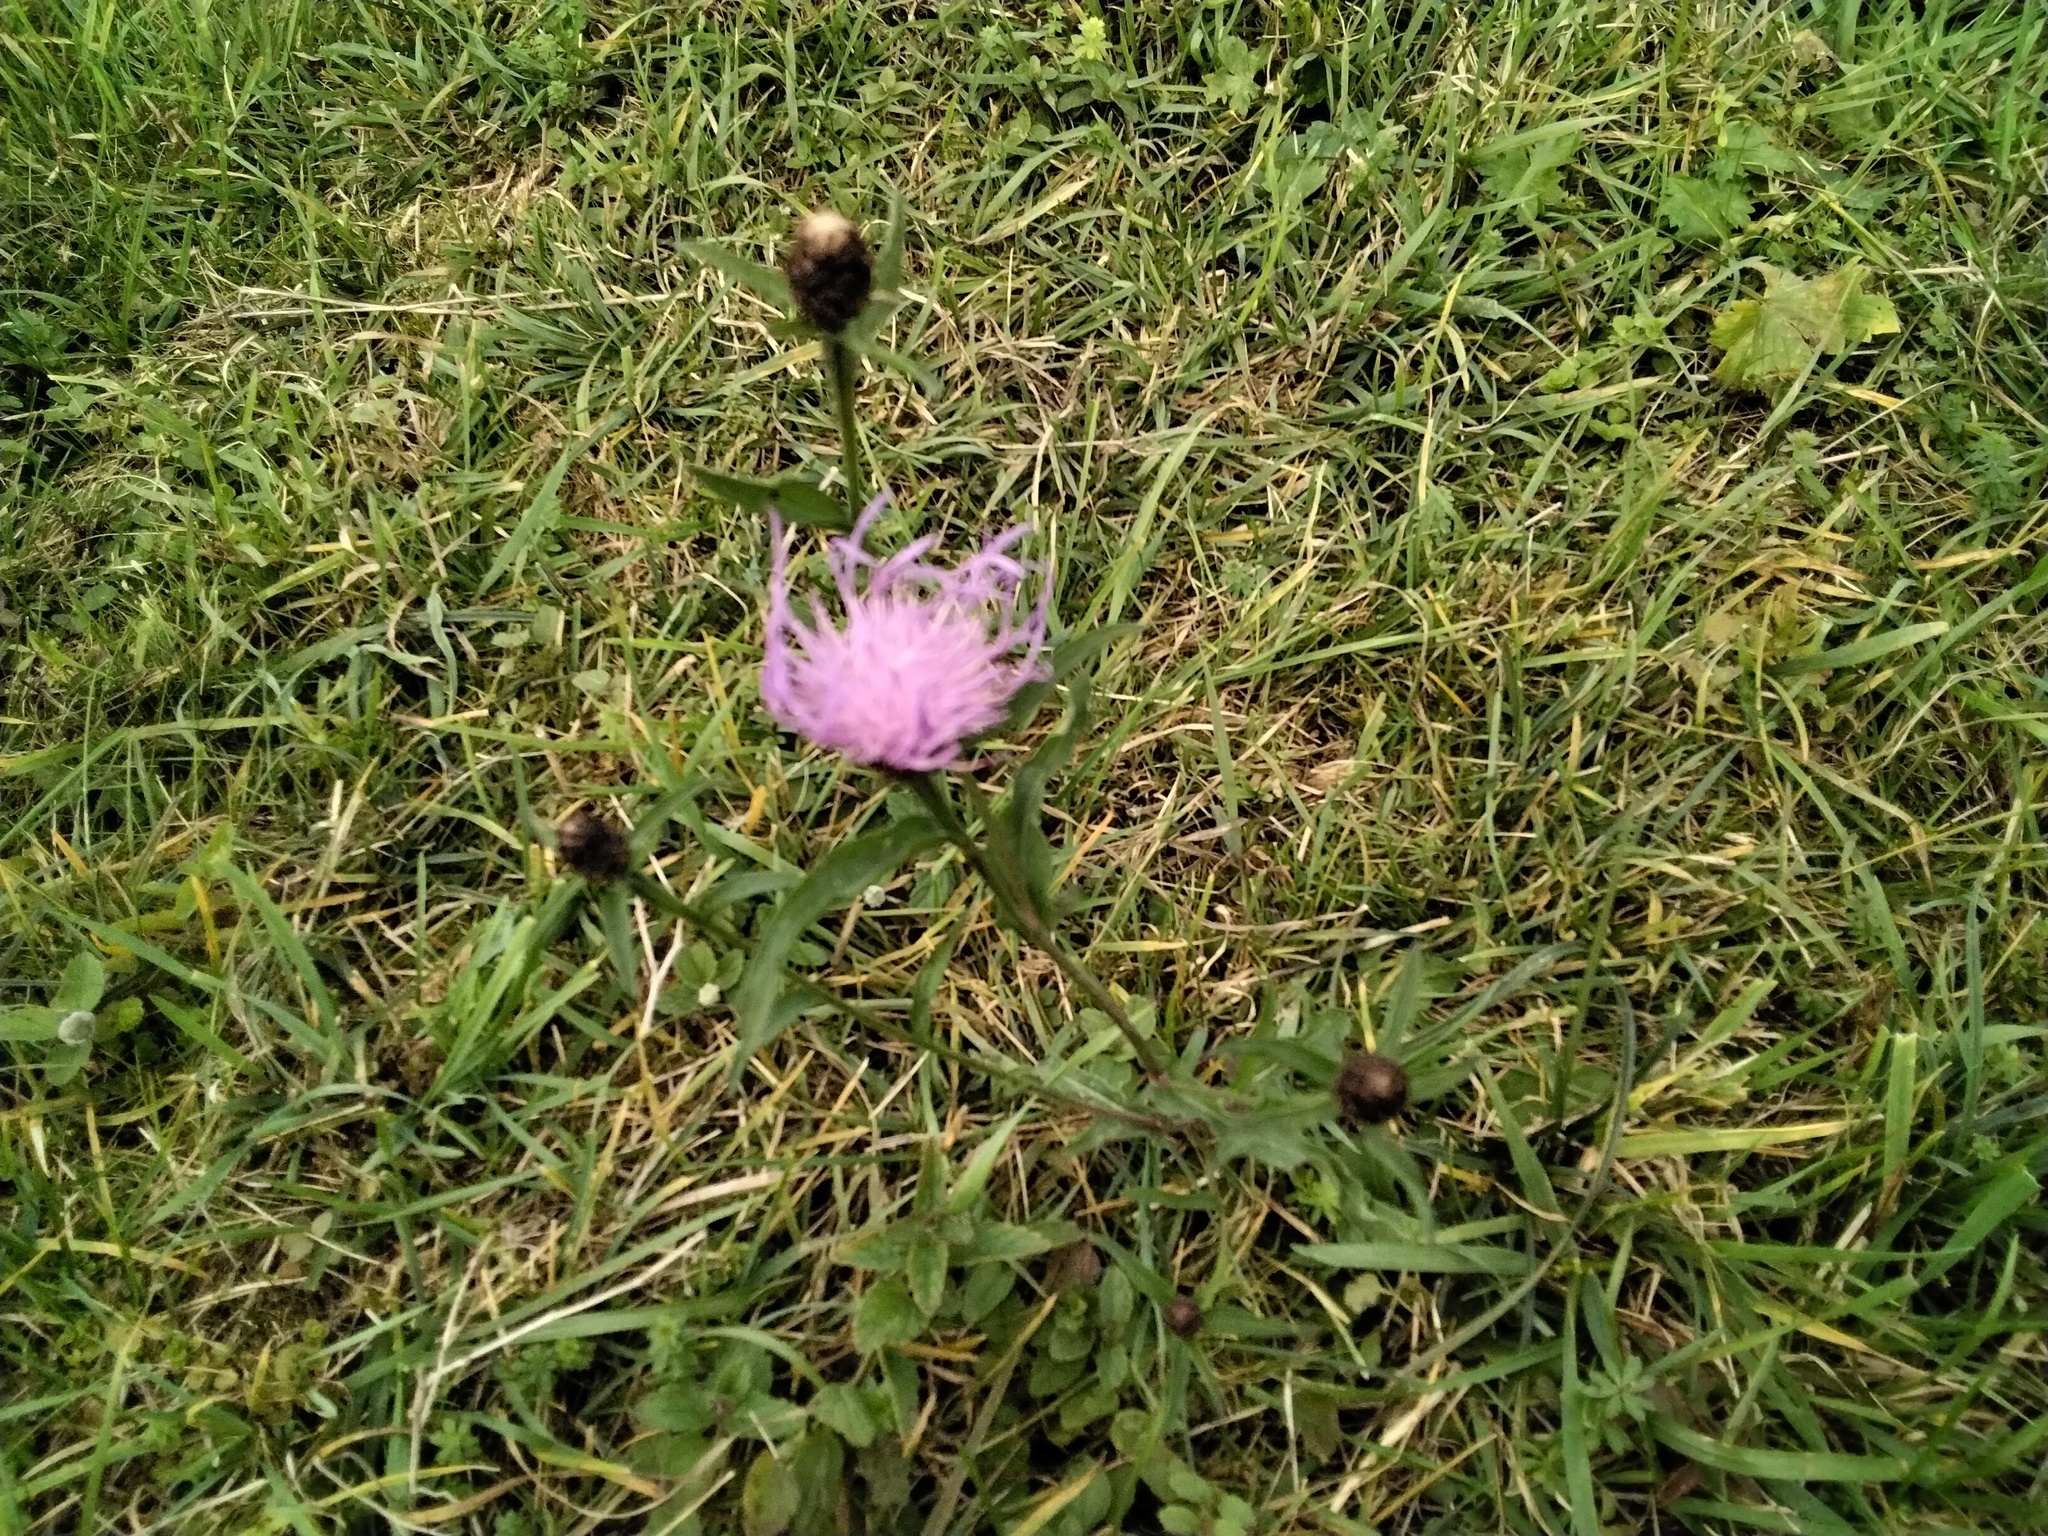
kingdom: Plantae
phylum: Tracheophyta
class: Magnoliopsida
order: Asterales
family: Asteraceae
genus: Centaurea
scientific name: Centaurea jacea
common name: Brown knapweed
